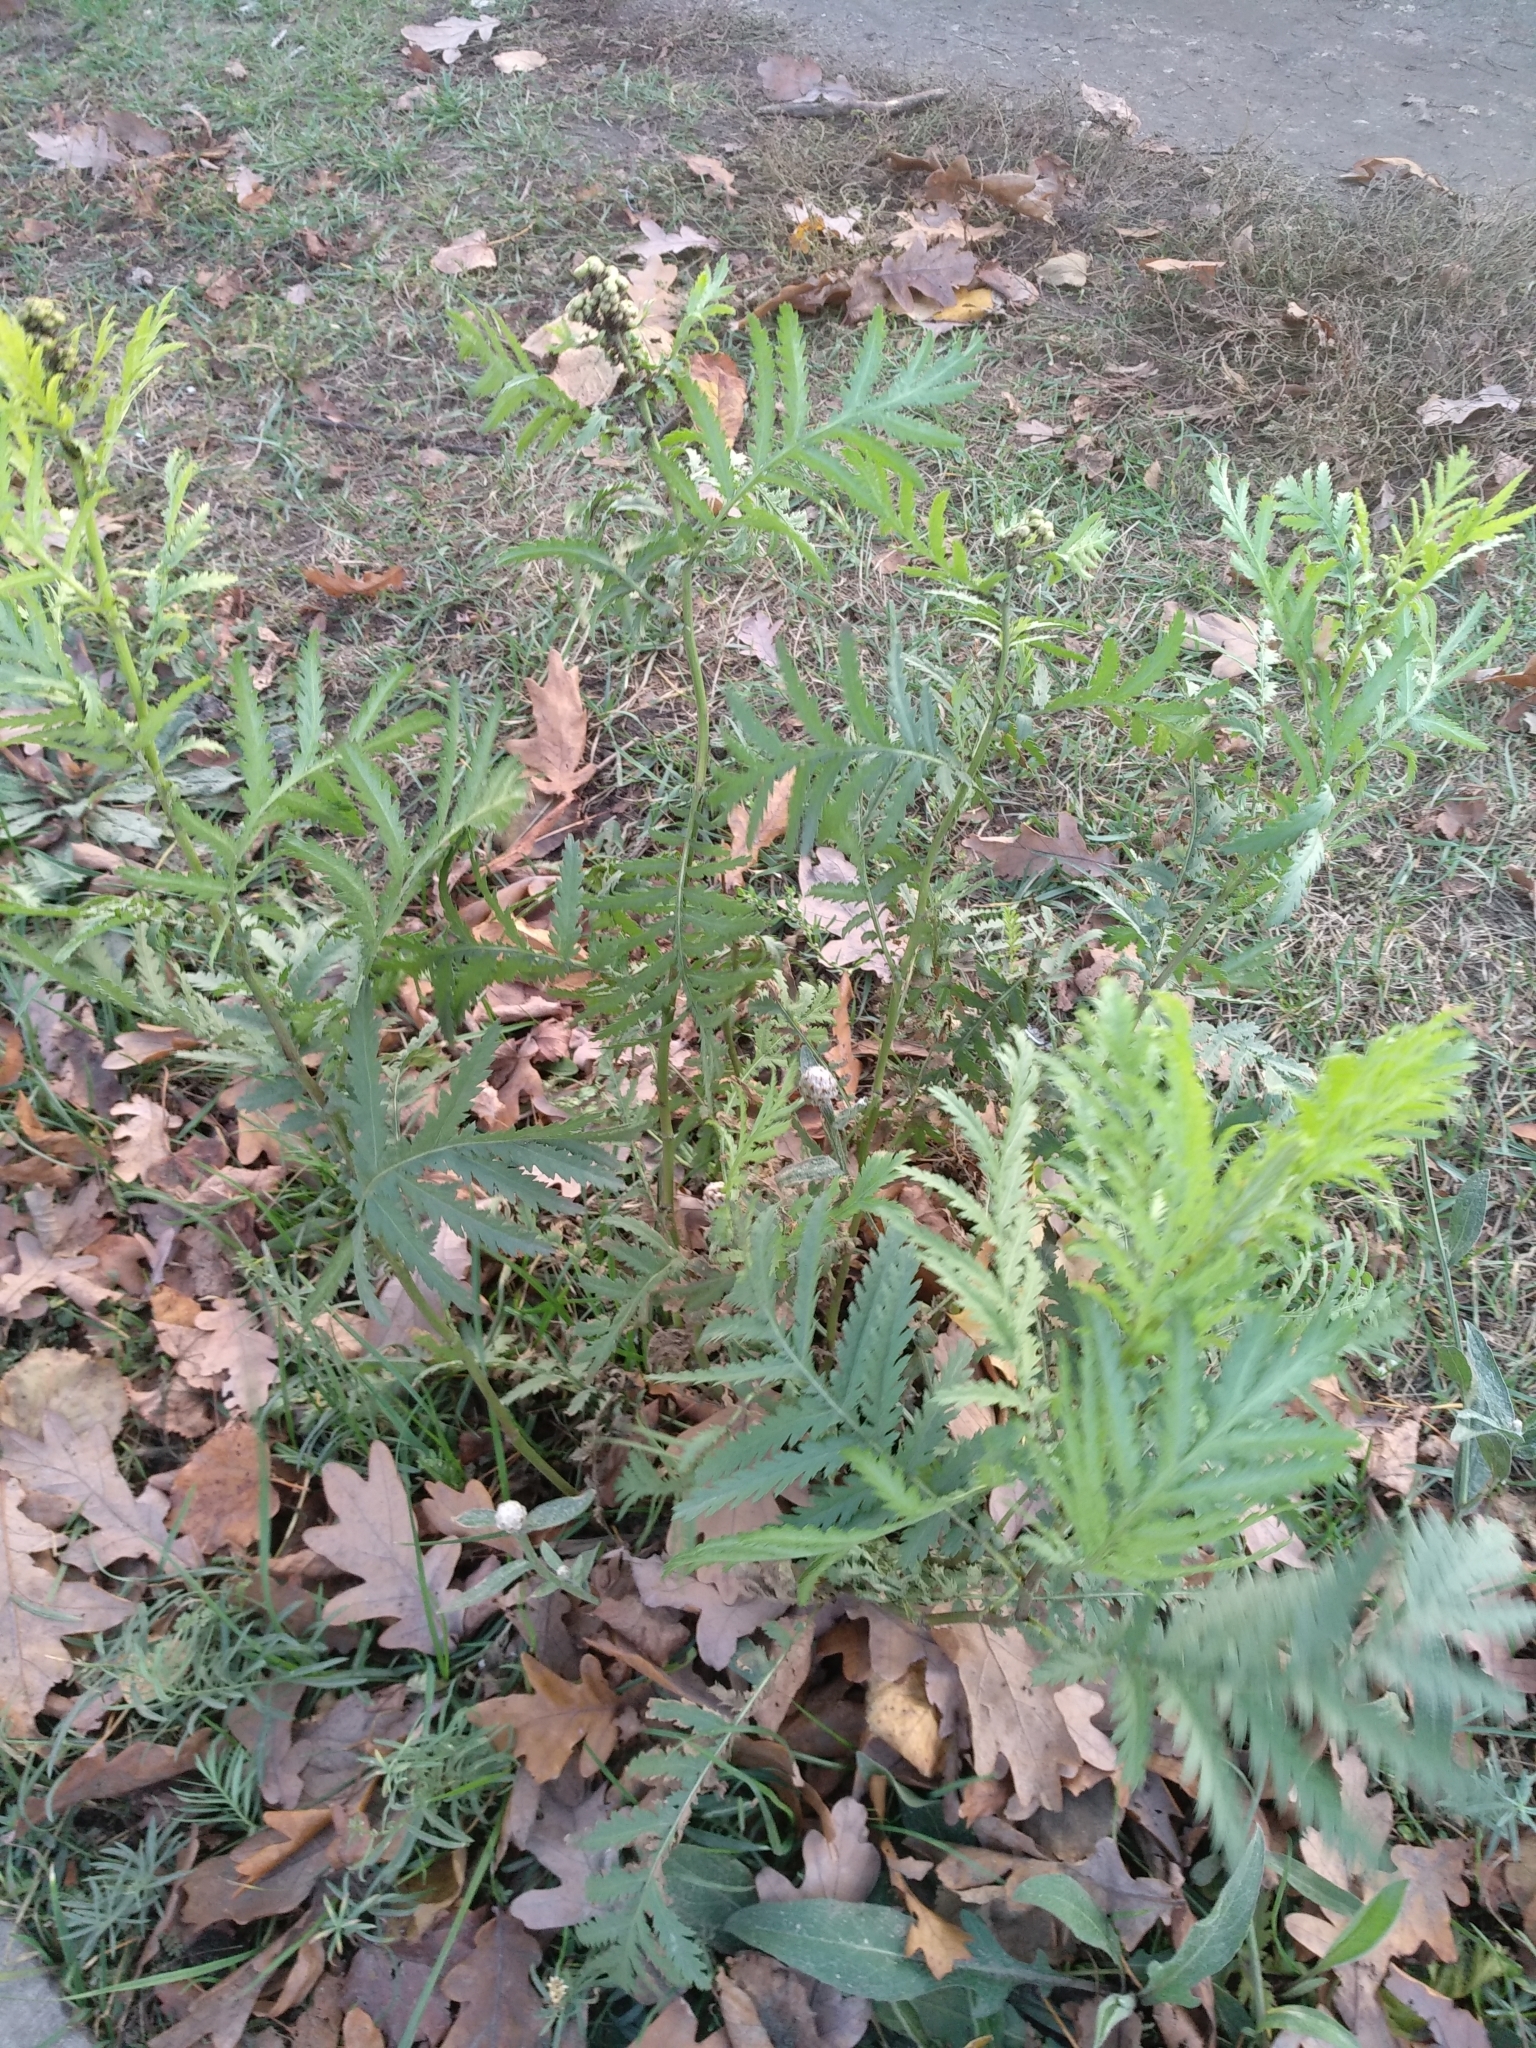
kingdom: Plantae
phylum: Tracheophyta
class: Magnoliopsida
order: Asterales
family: Asteraceae
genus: Tanacetum
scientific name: Tanacetum vulgare
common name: Common tansy
